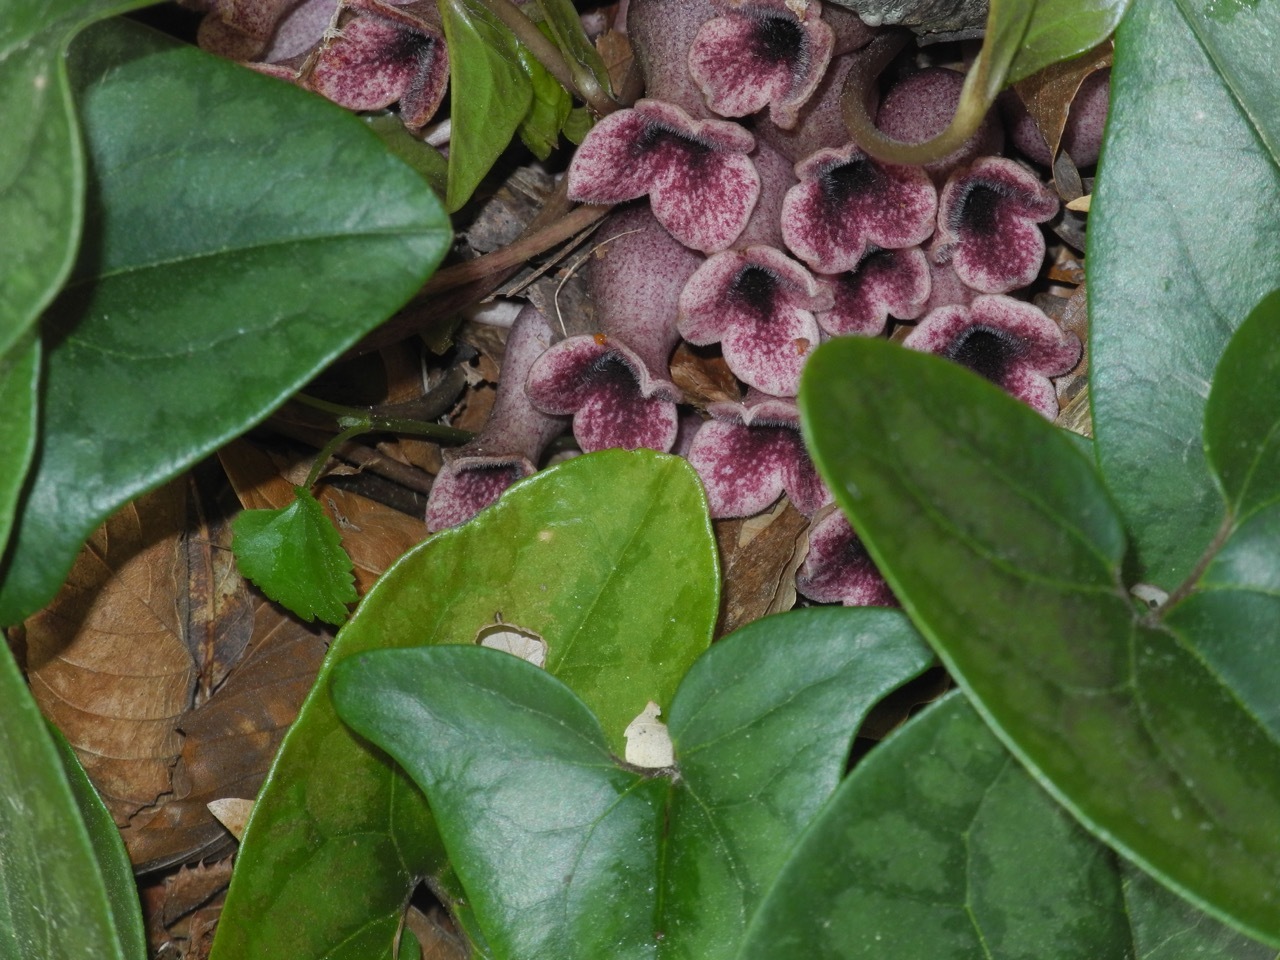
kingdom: Plantae
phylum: Tracheophyta
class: Magnoliopsida
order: Piperales
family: Aristolochiaceae
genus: Hexastylis
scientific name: Hexastylis arifolia
